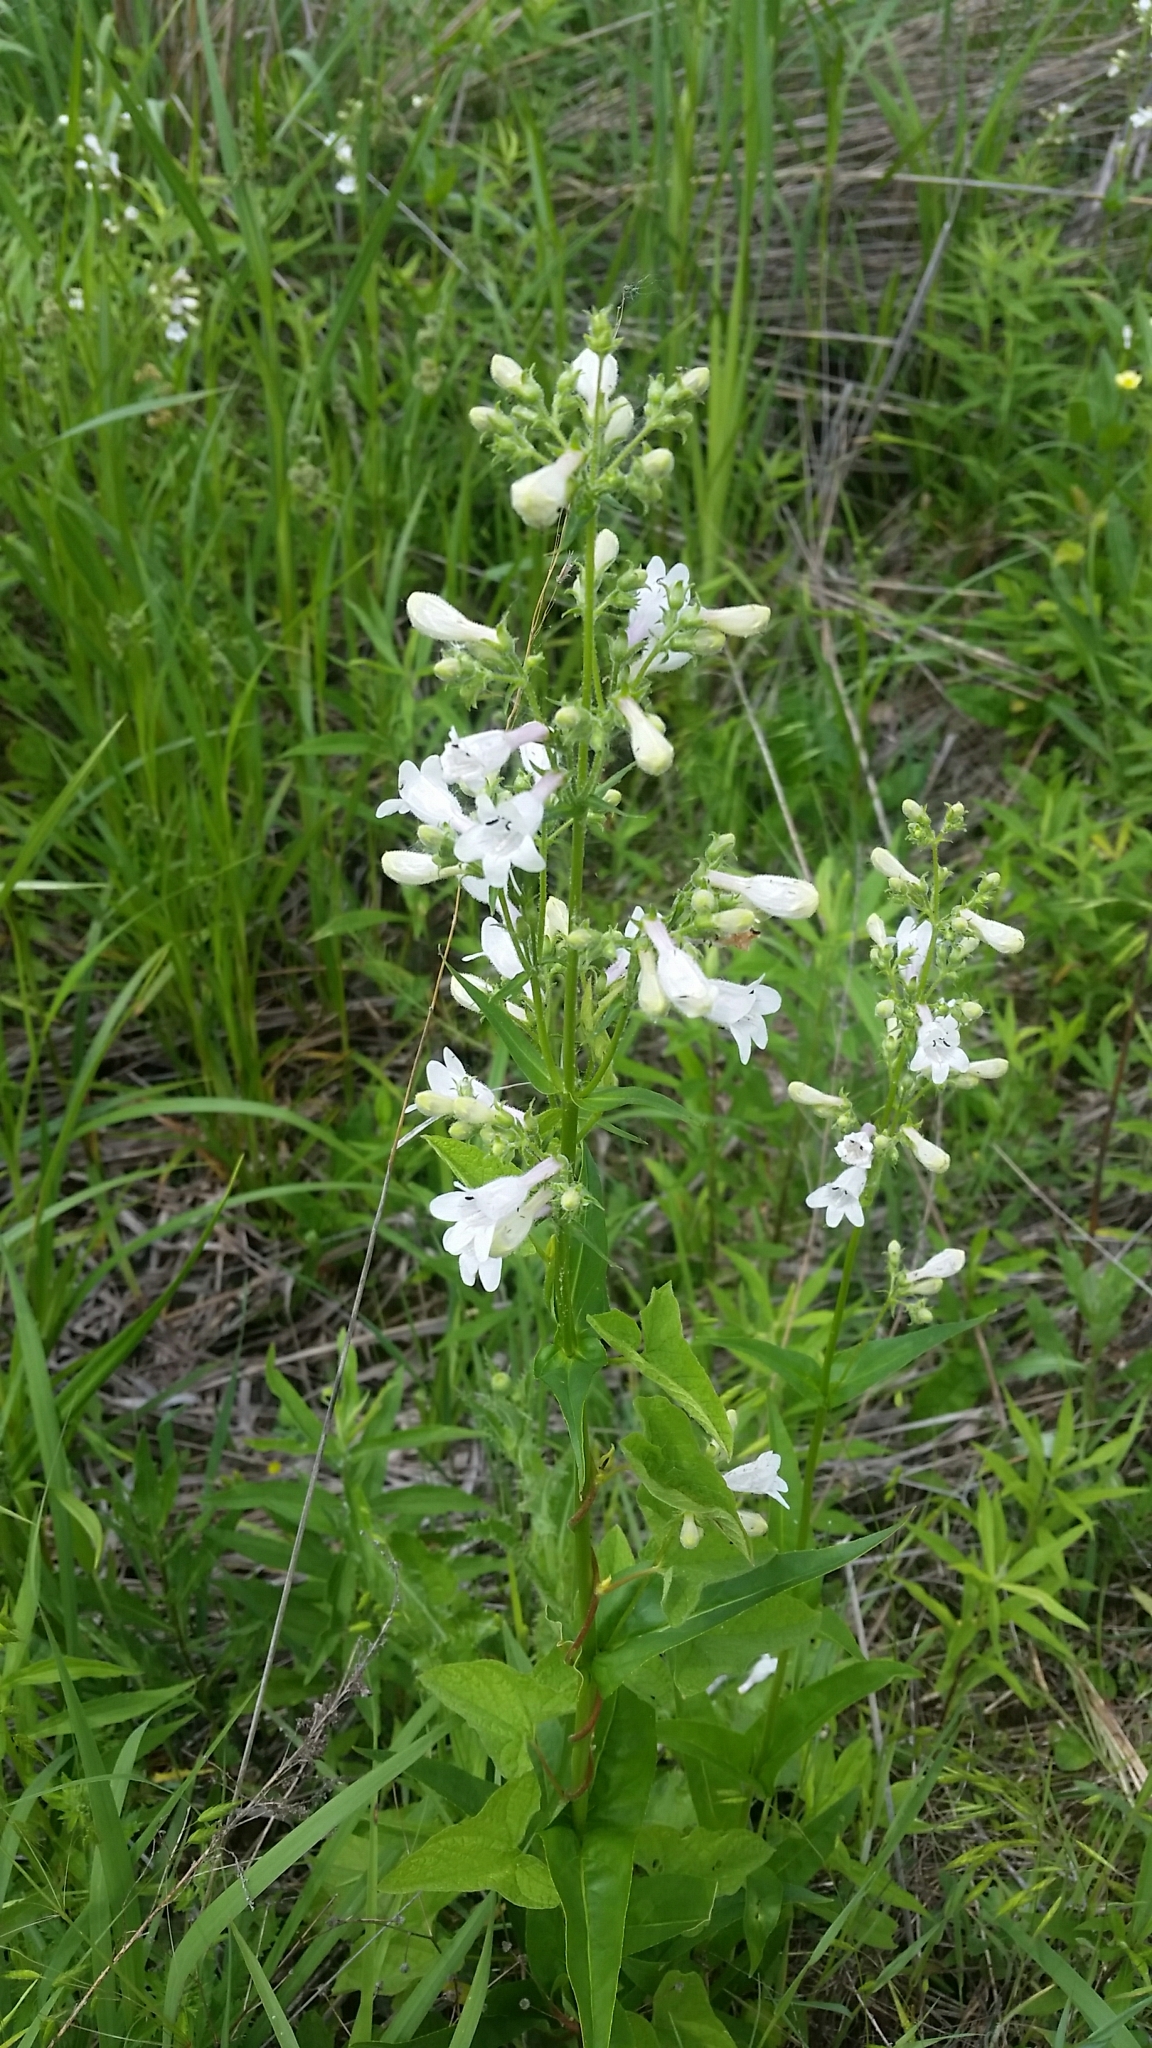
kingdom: Plantae
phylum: Tracheophyta
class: Magnoliopsida
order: Lamiales
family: Plantaginaceae
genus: Penstemon
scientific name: Penstemon digitalis
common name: Foxglove beardtongue
